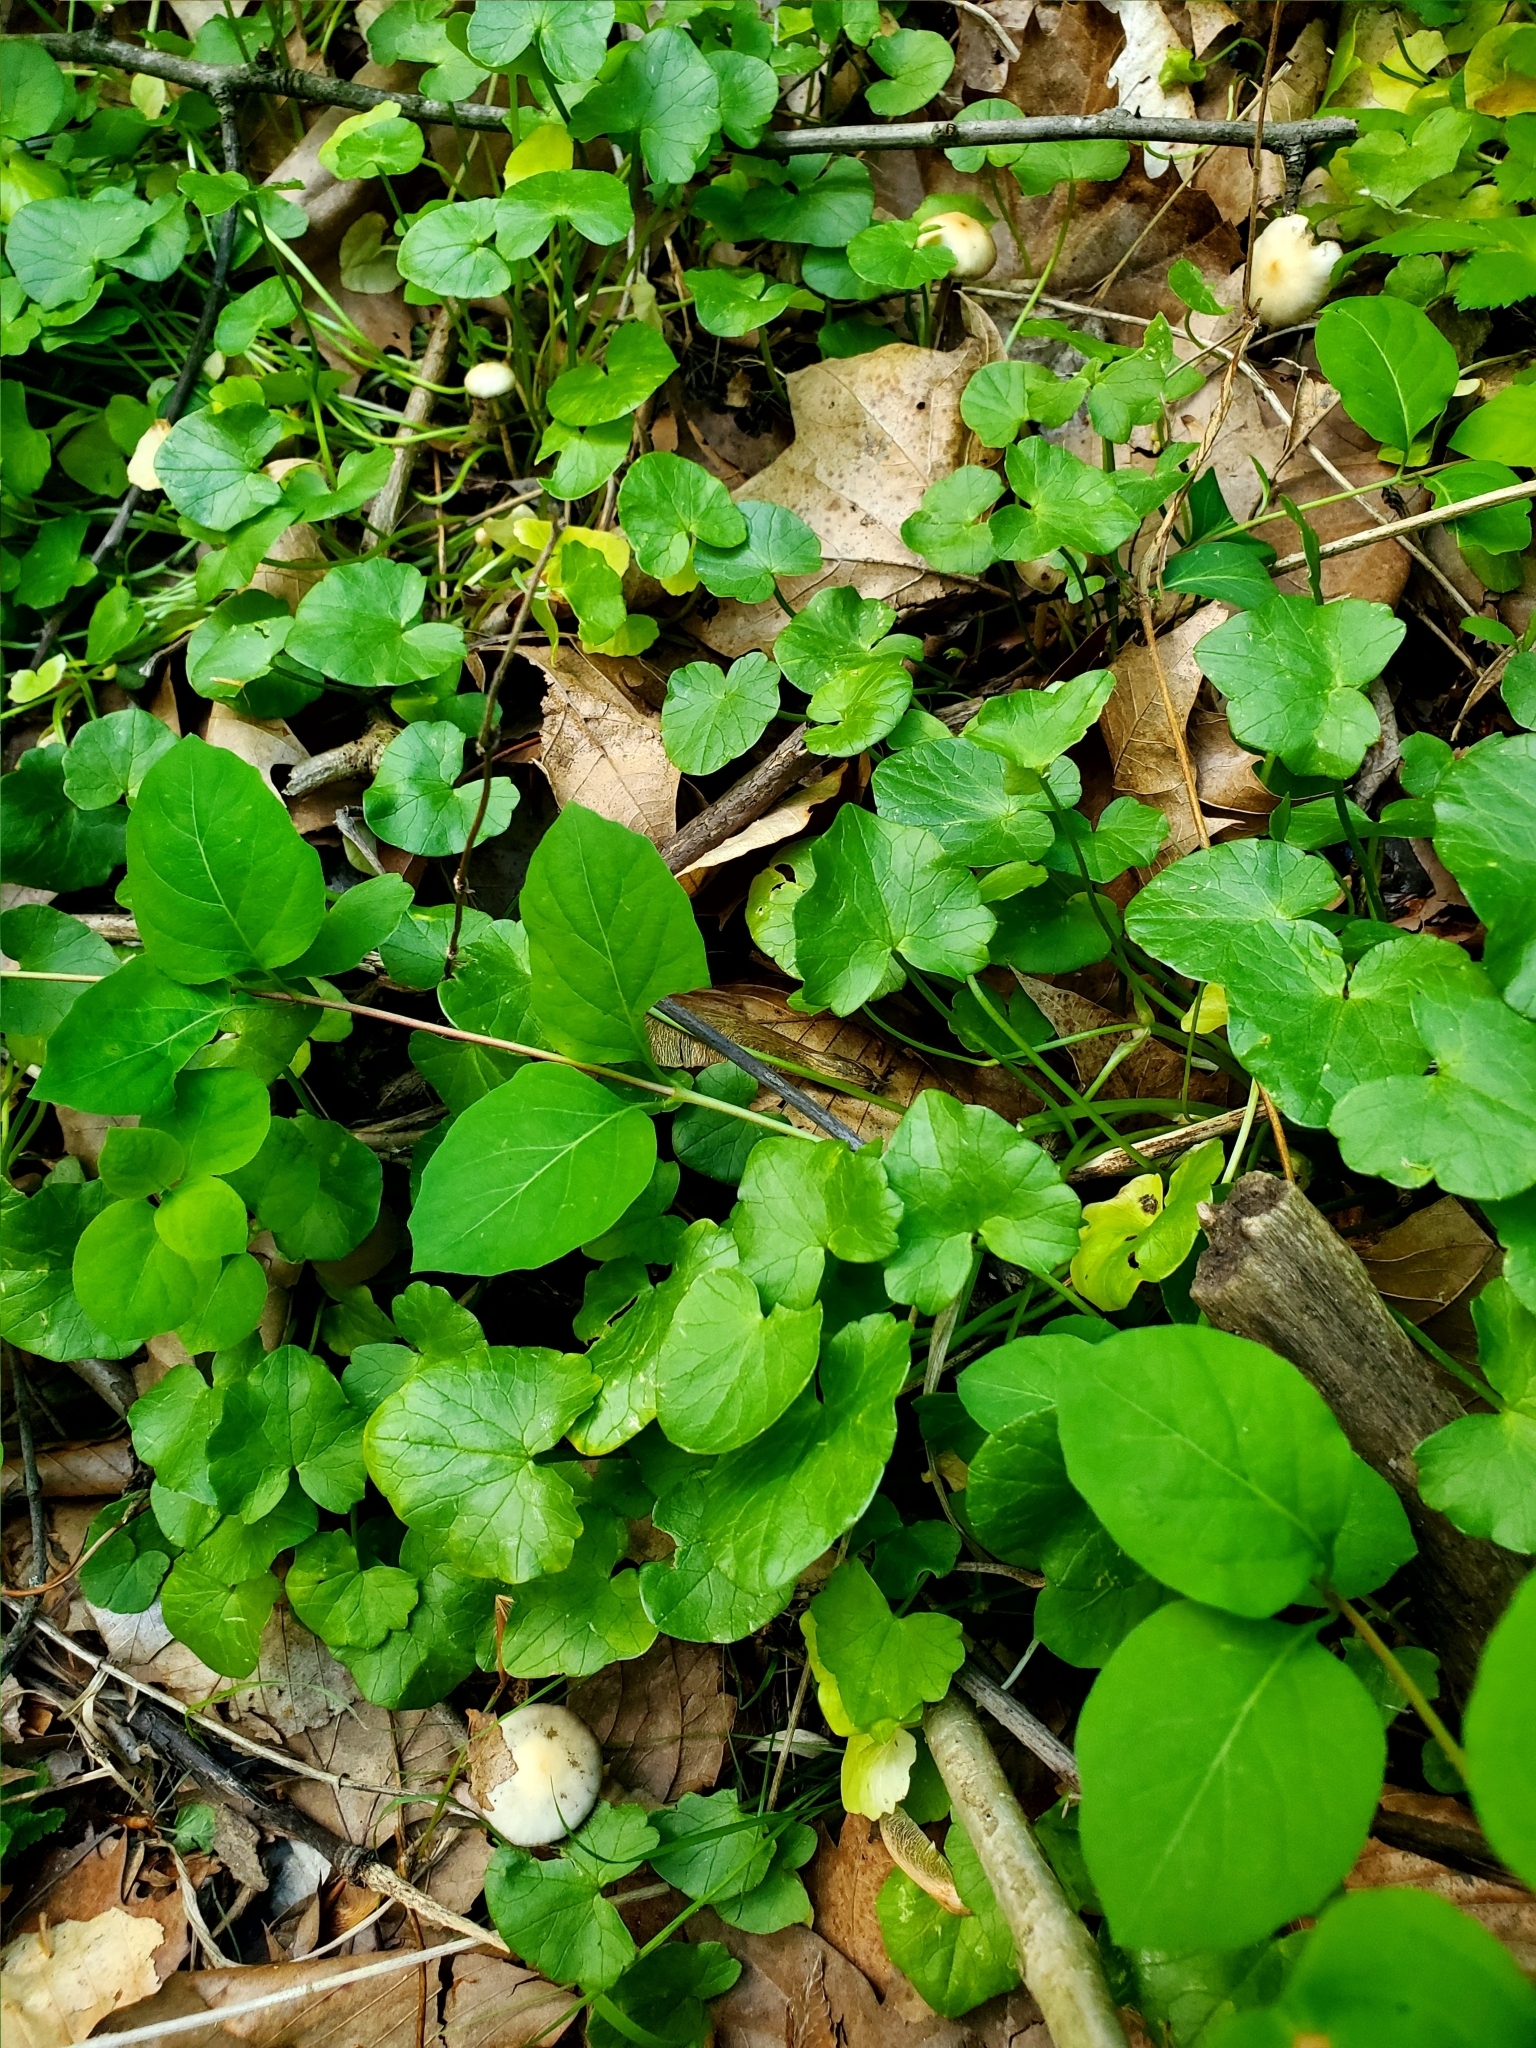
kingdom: Fungi
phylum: Basidiomycota
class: Agaricomycetes
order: Agaricales
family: Hymenogastraceae
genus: Psilocybe
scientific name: Psilocybe ovoideocystidiata
